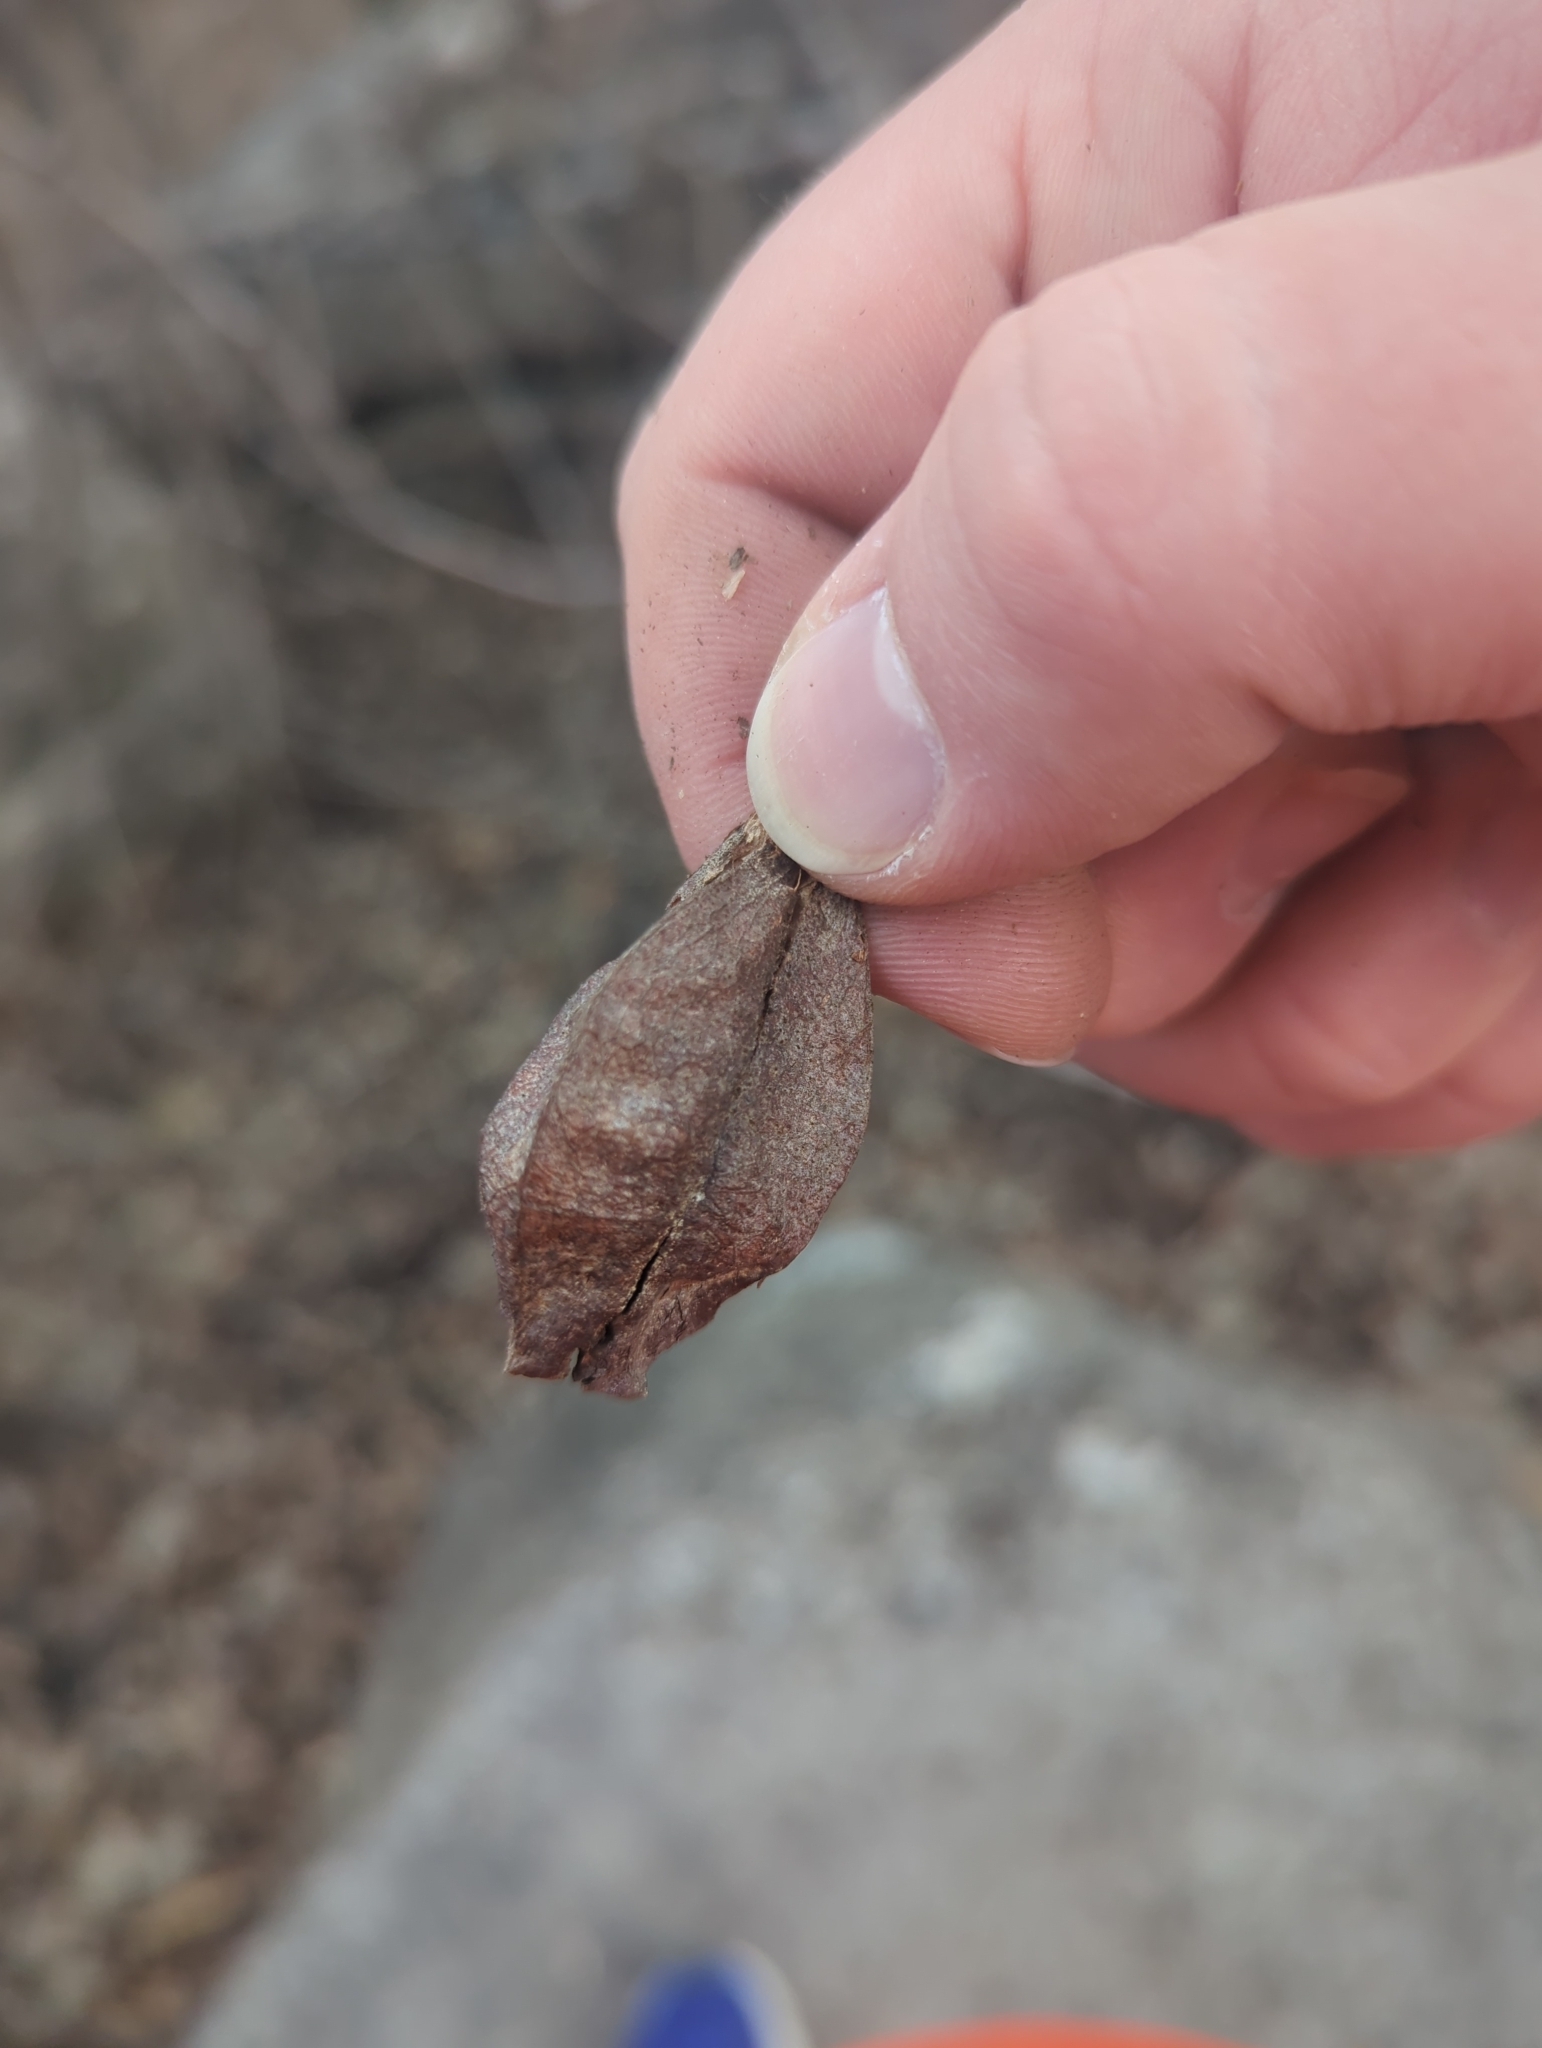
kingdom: Plantae
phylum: Tracheophyta
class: Magnoliopsida
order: Crossosomatales
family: Staphyleaceae
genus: Staphylea
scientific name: Staphylea trifolia
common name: American bladdernut
